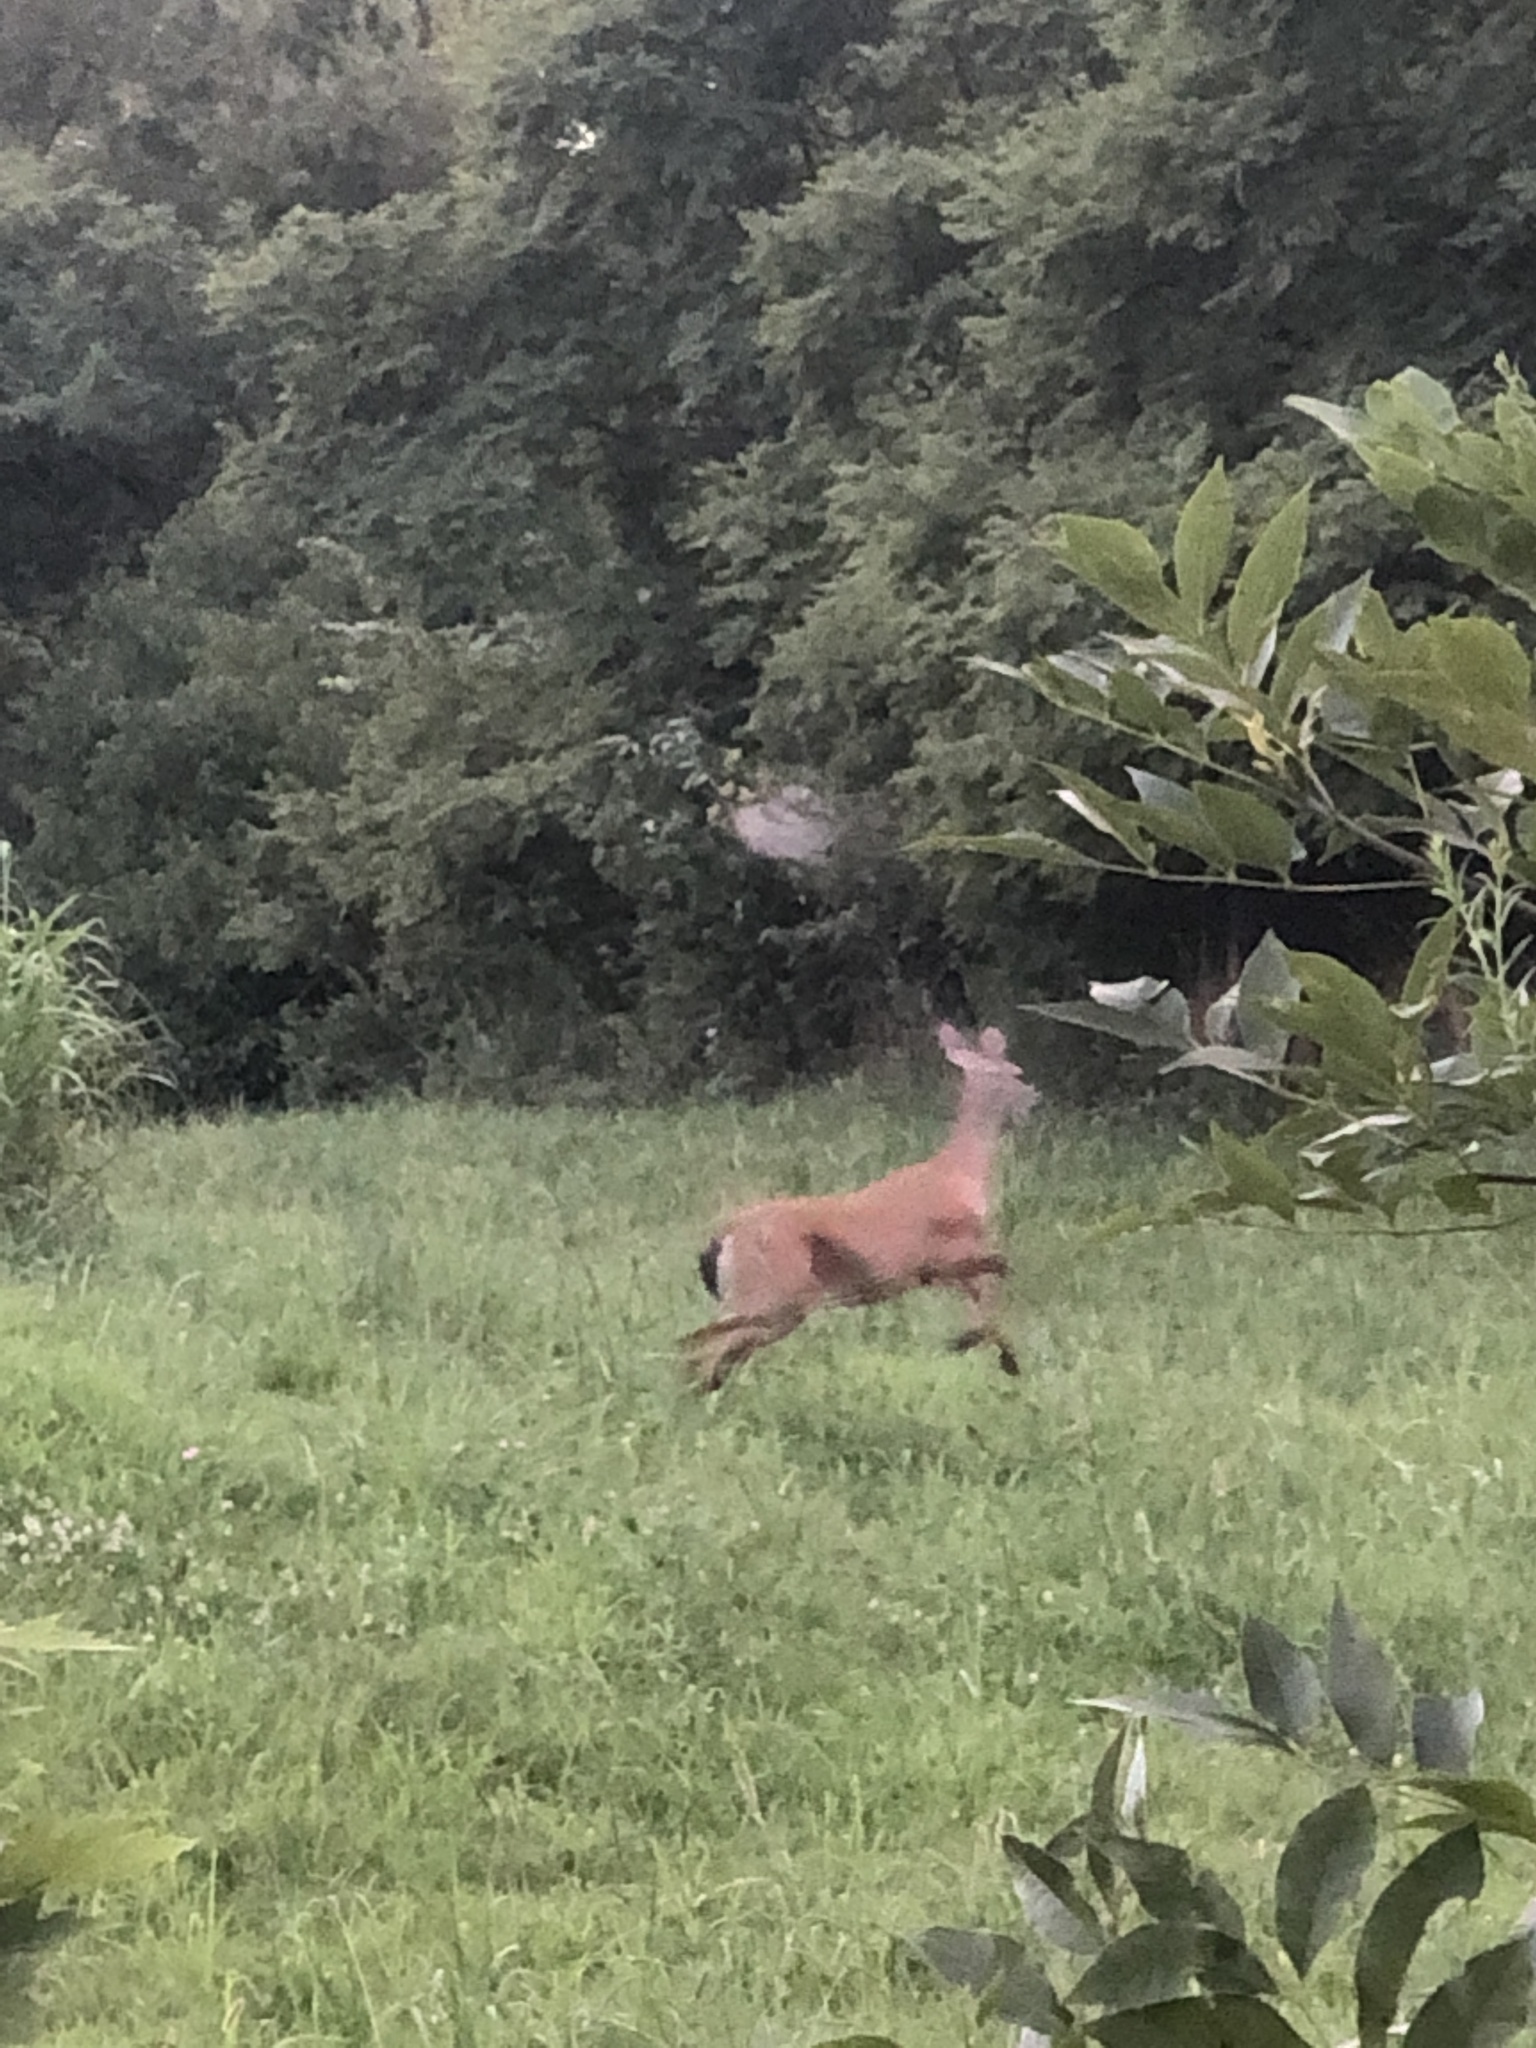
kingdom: Animalia
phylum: Chordata
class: Mammalia
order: Artiodactyla
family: Cervidae
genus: Odocoileus
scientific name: Odocoileus virginianus
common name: White-tailed deer
